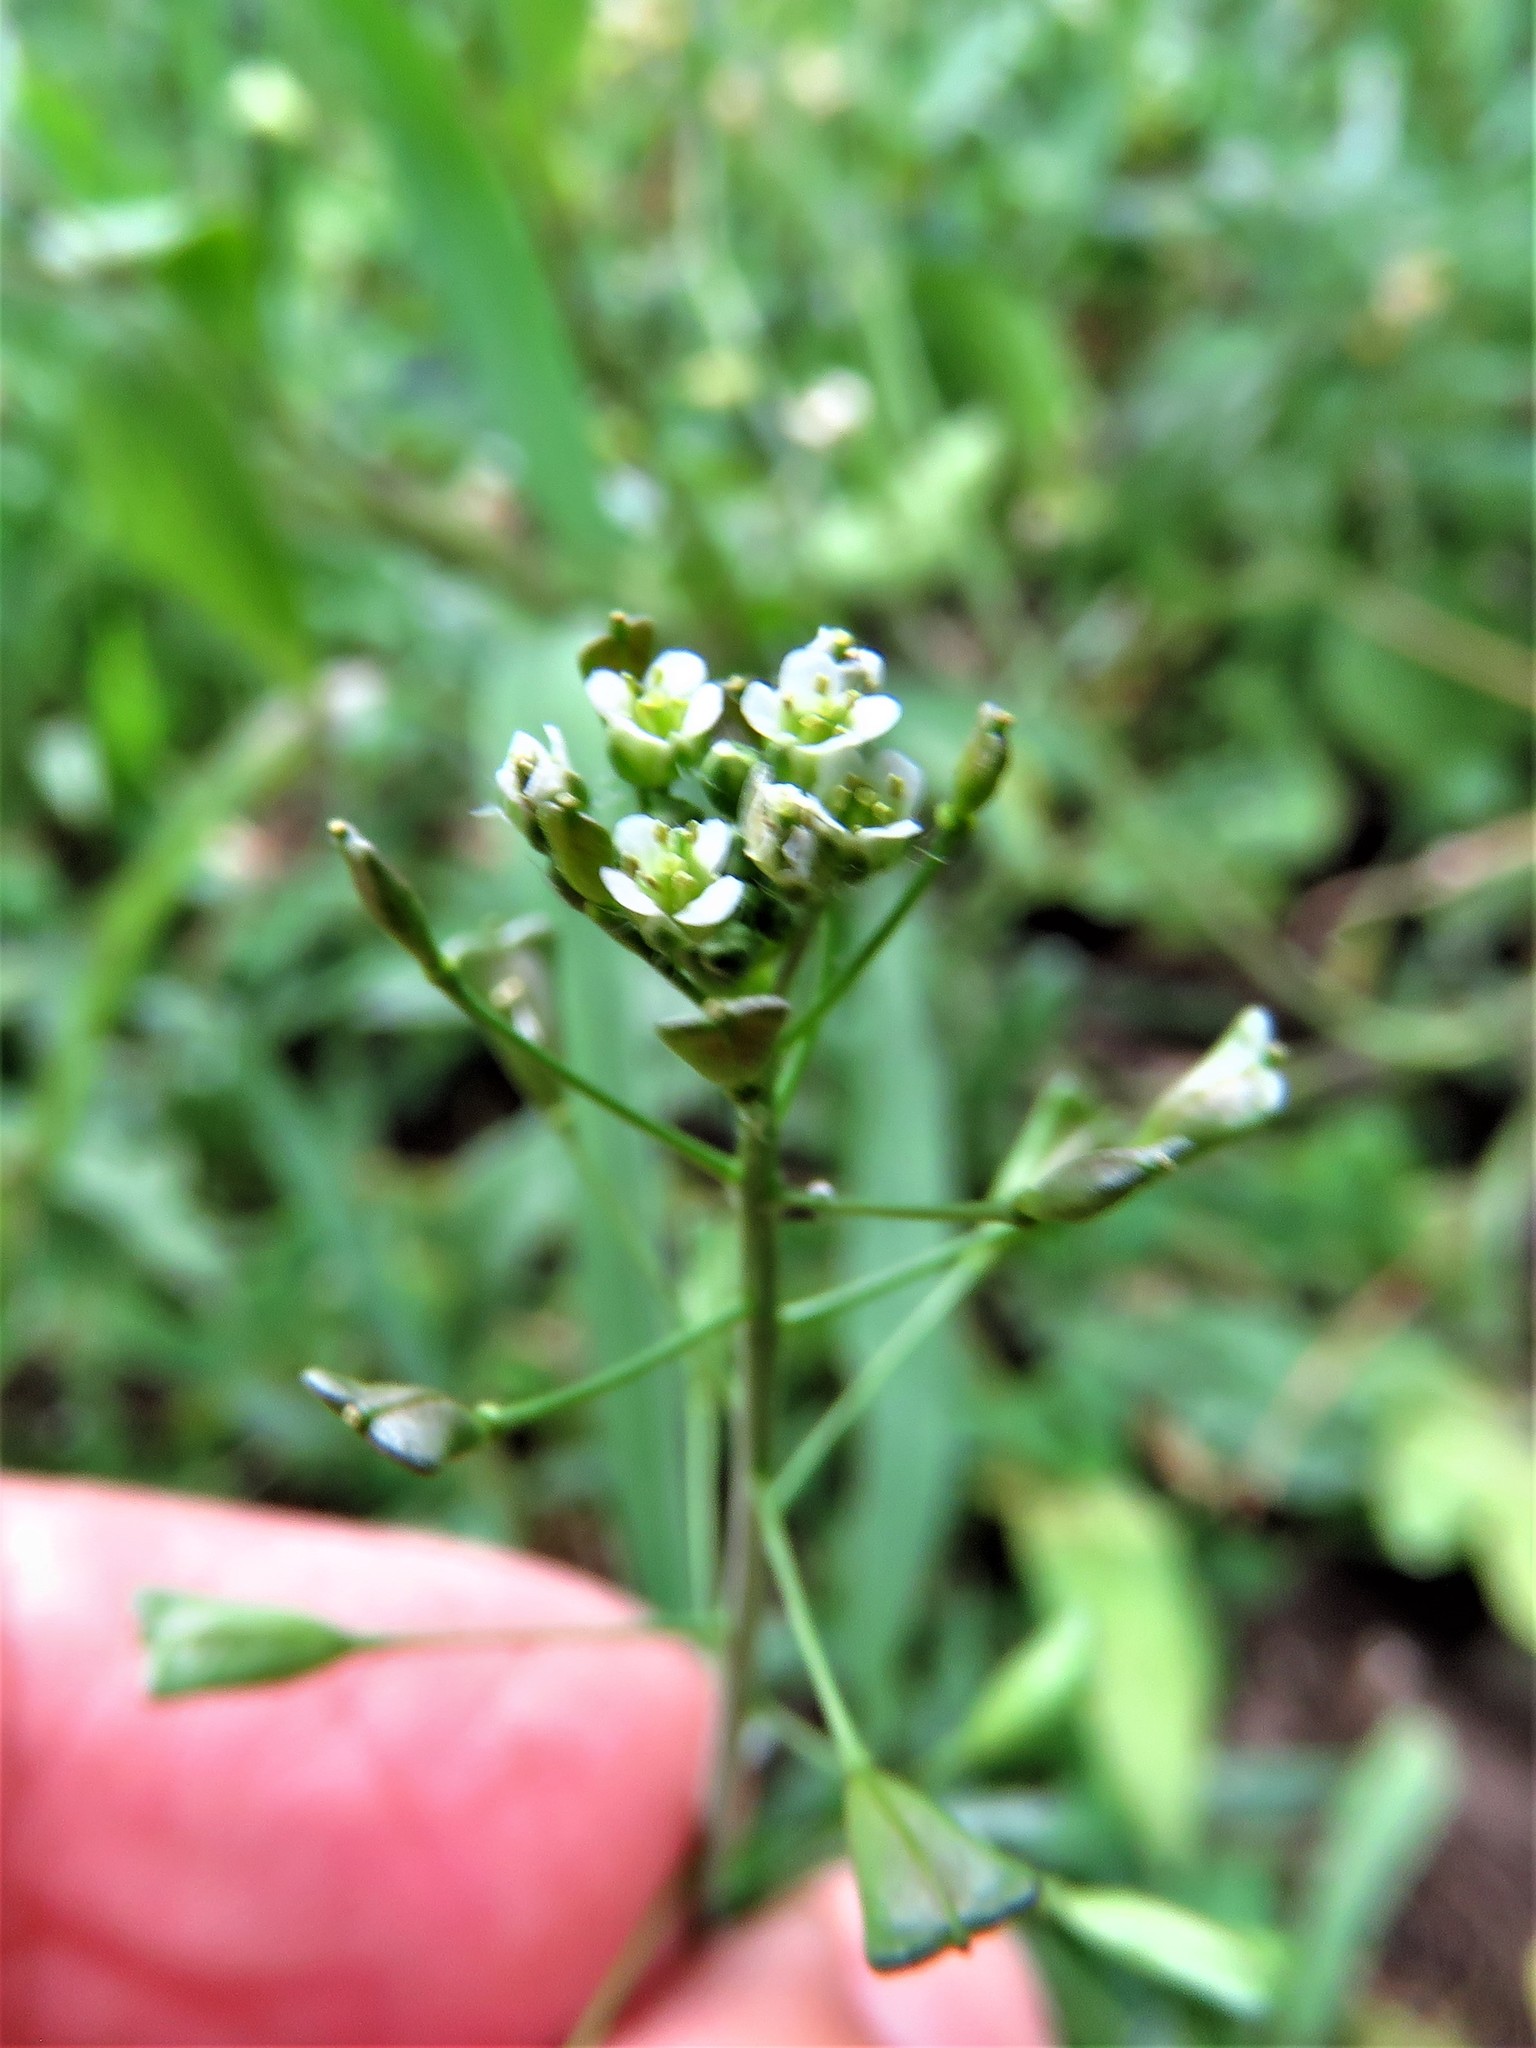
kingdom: Plantae
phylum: Tracheophyta
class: Magnoliopsida
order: Brassicales
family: Brassicaceae
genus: Capsella
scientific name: Capsella bursa-pastoris
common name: Shepherd's purse
